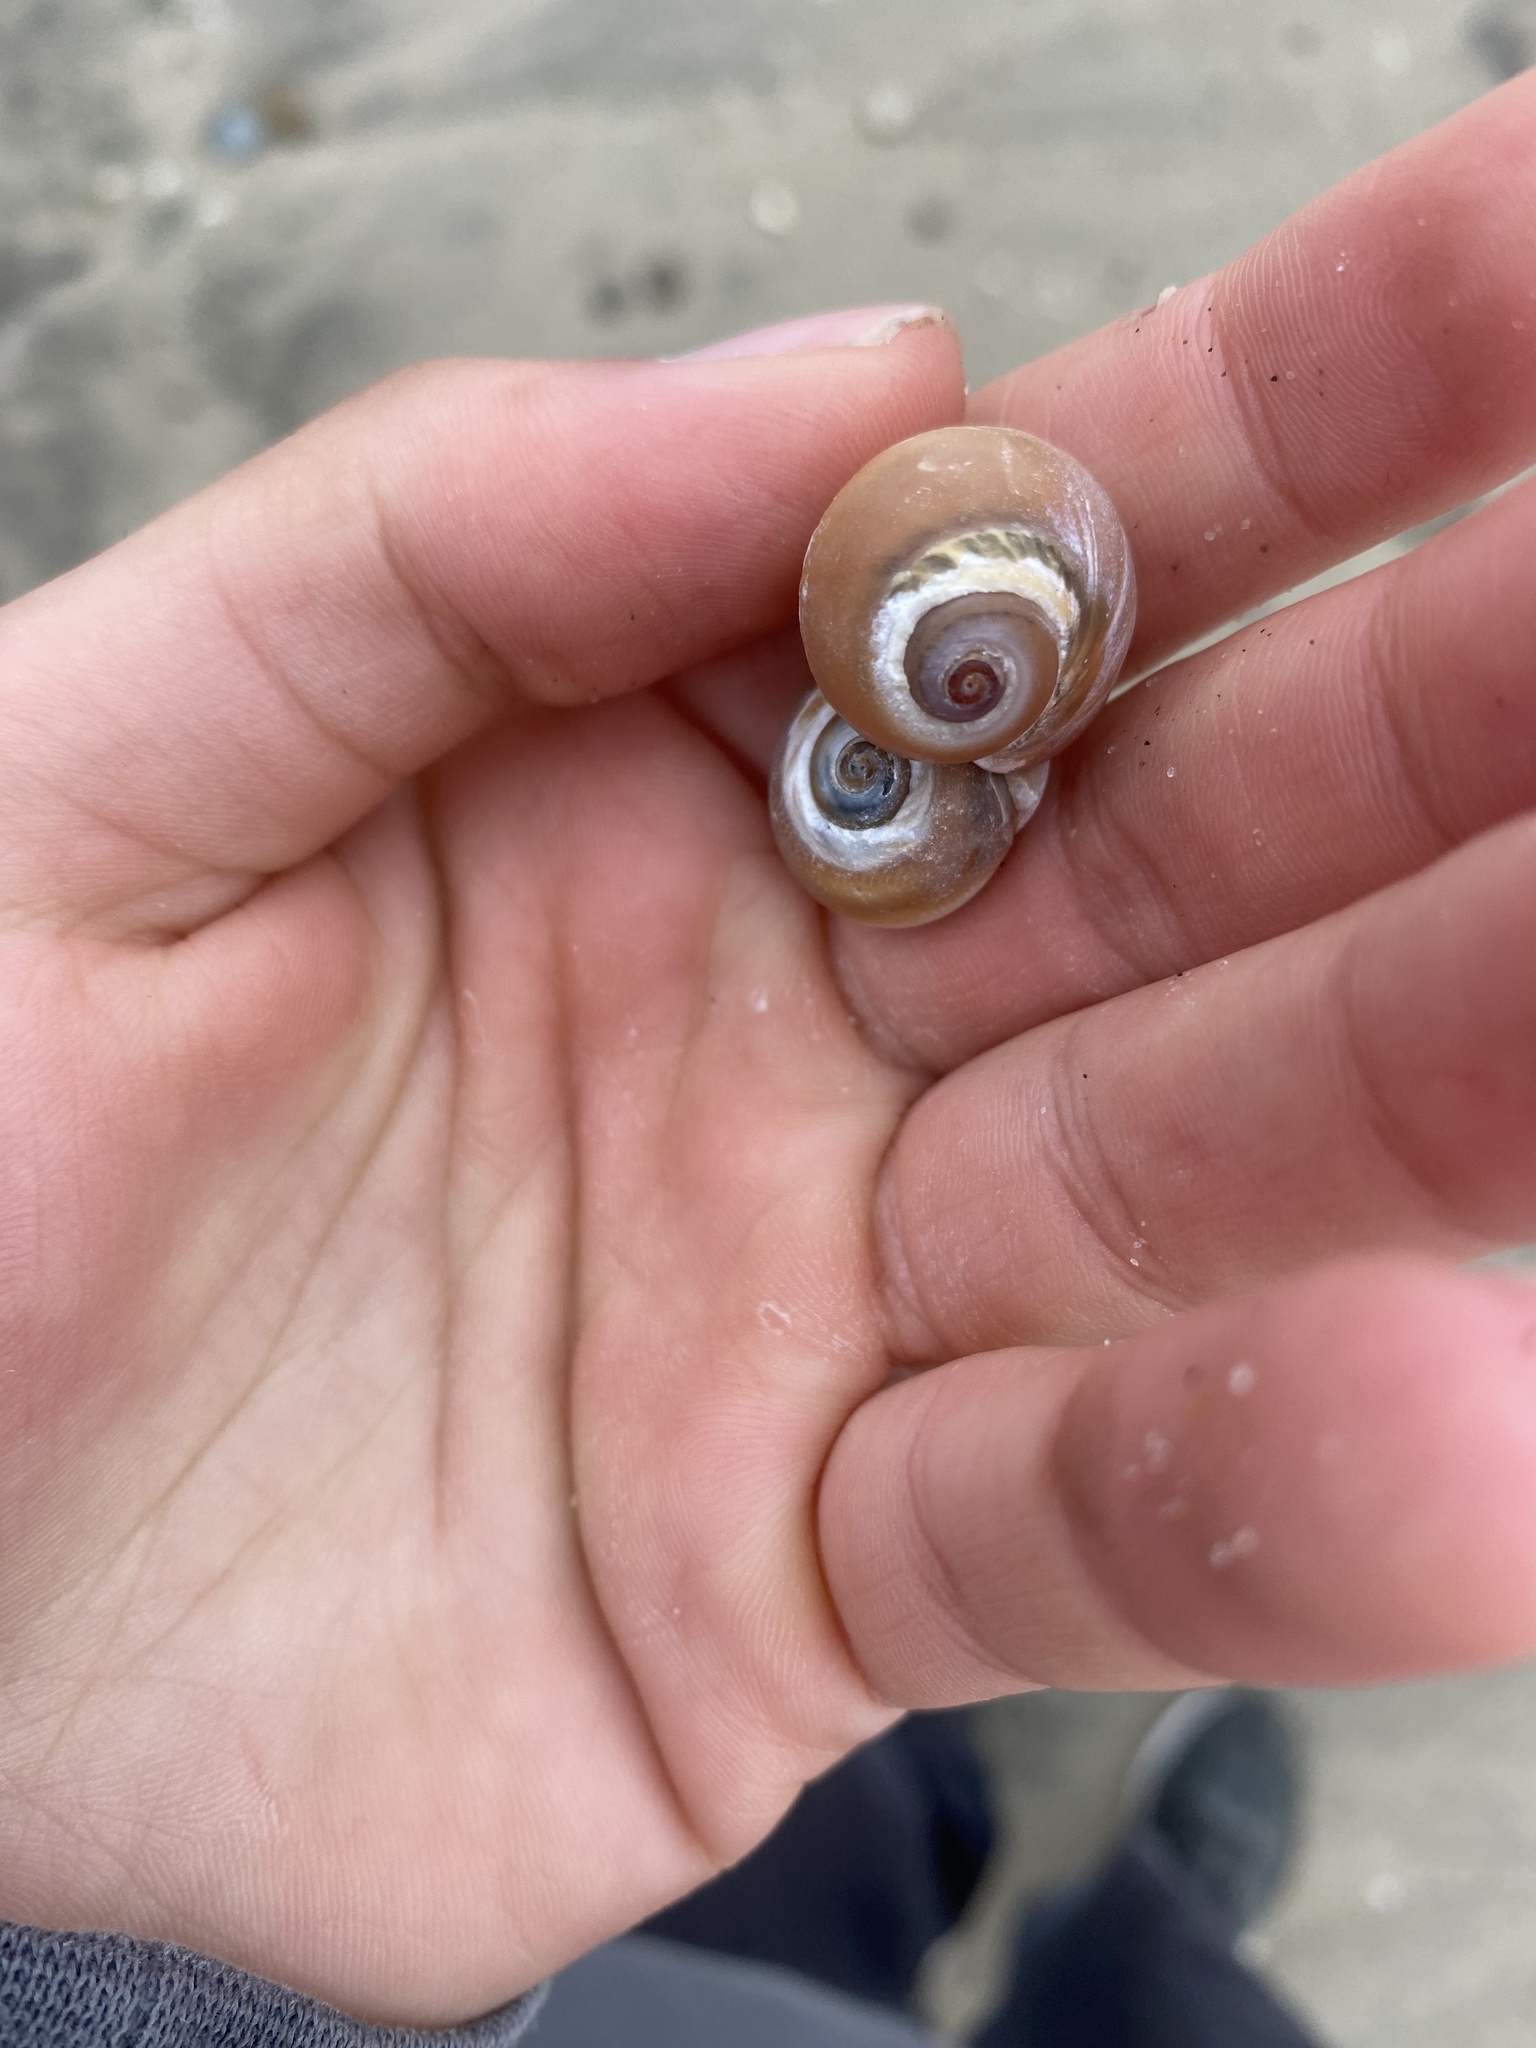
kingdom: Animalia
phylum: Mollusca
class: Gastropoda
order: Littorinimorpha
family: Naticidae
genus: Glossaulax
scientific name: Glossaulax reclusiana
